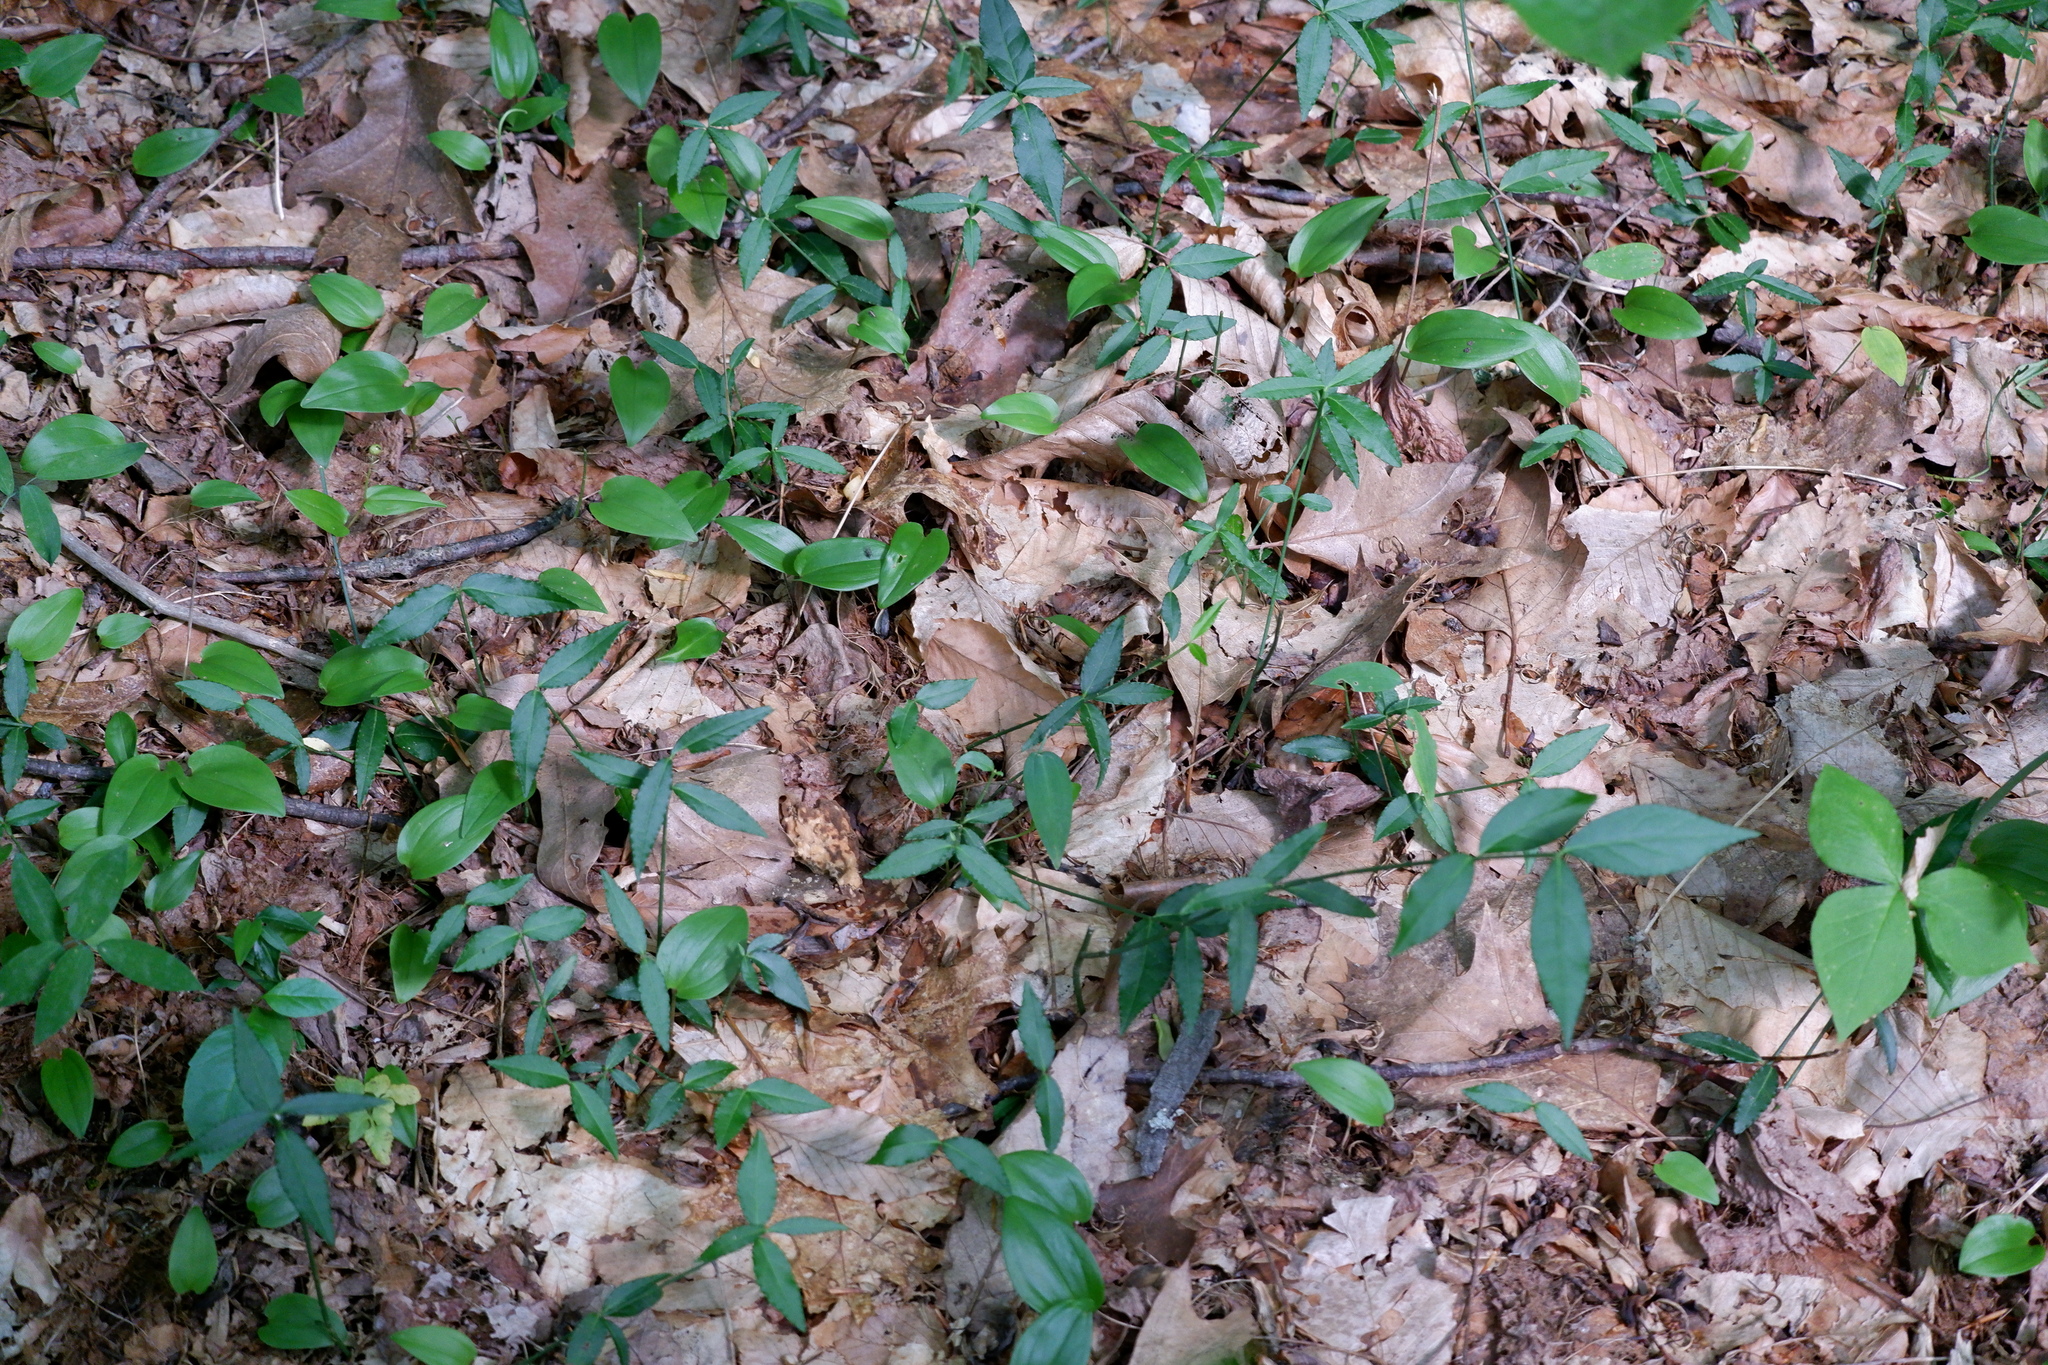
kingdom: Plantae
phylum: Tracheophyta
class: Magnoliopsida
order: Celastrales
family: Celastraceae
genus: Euonymus
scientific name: Euonymus americanus
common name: Bursting-heart
